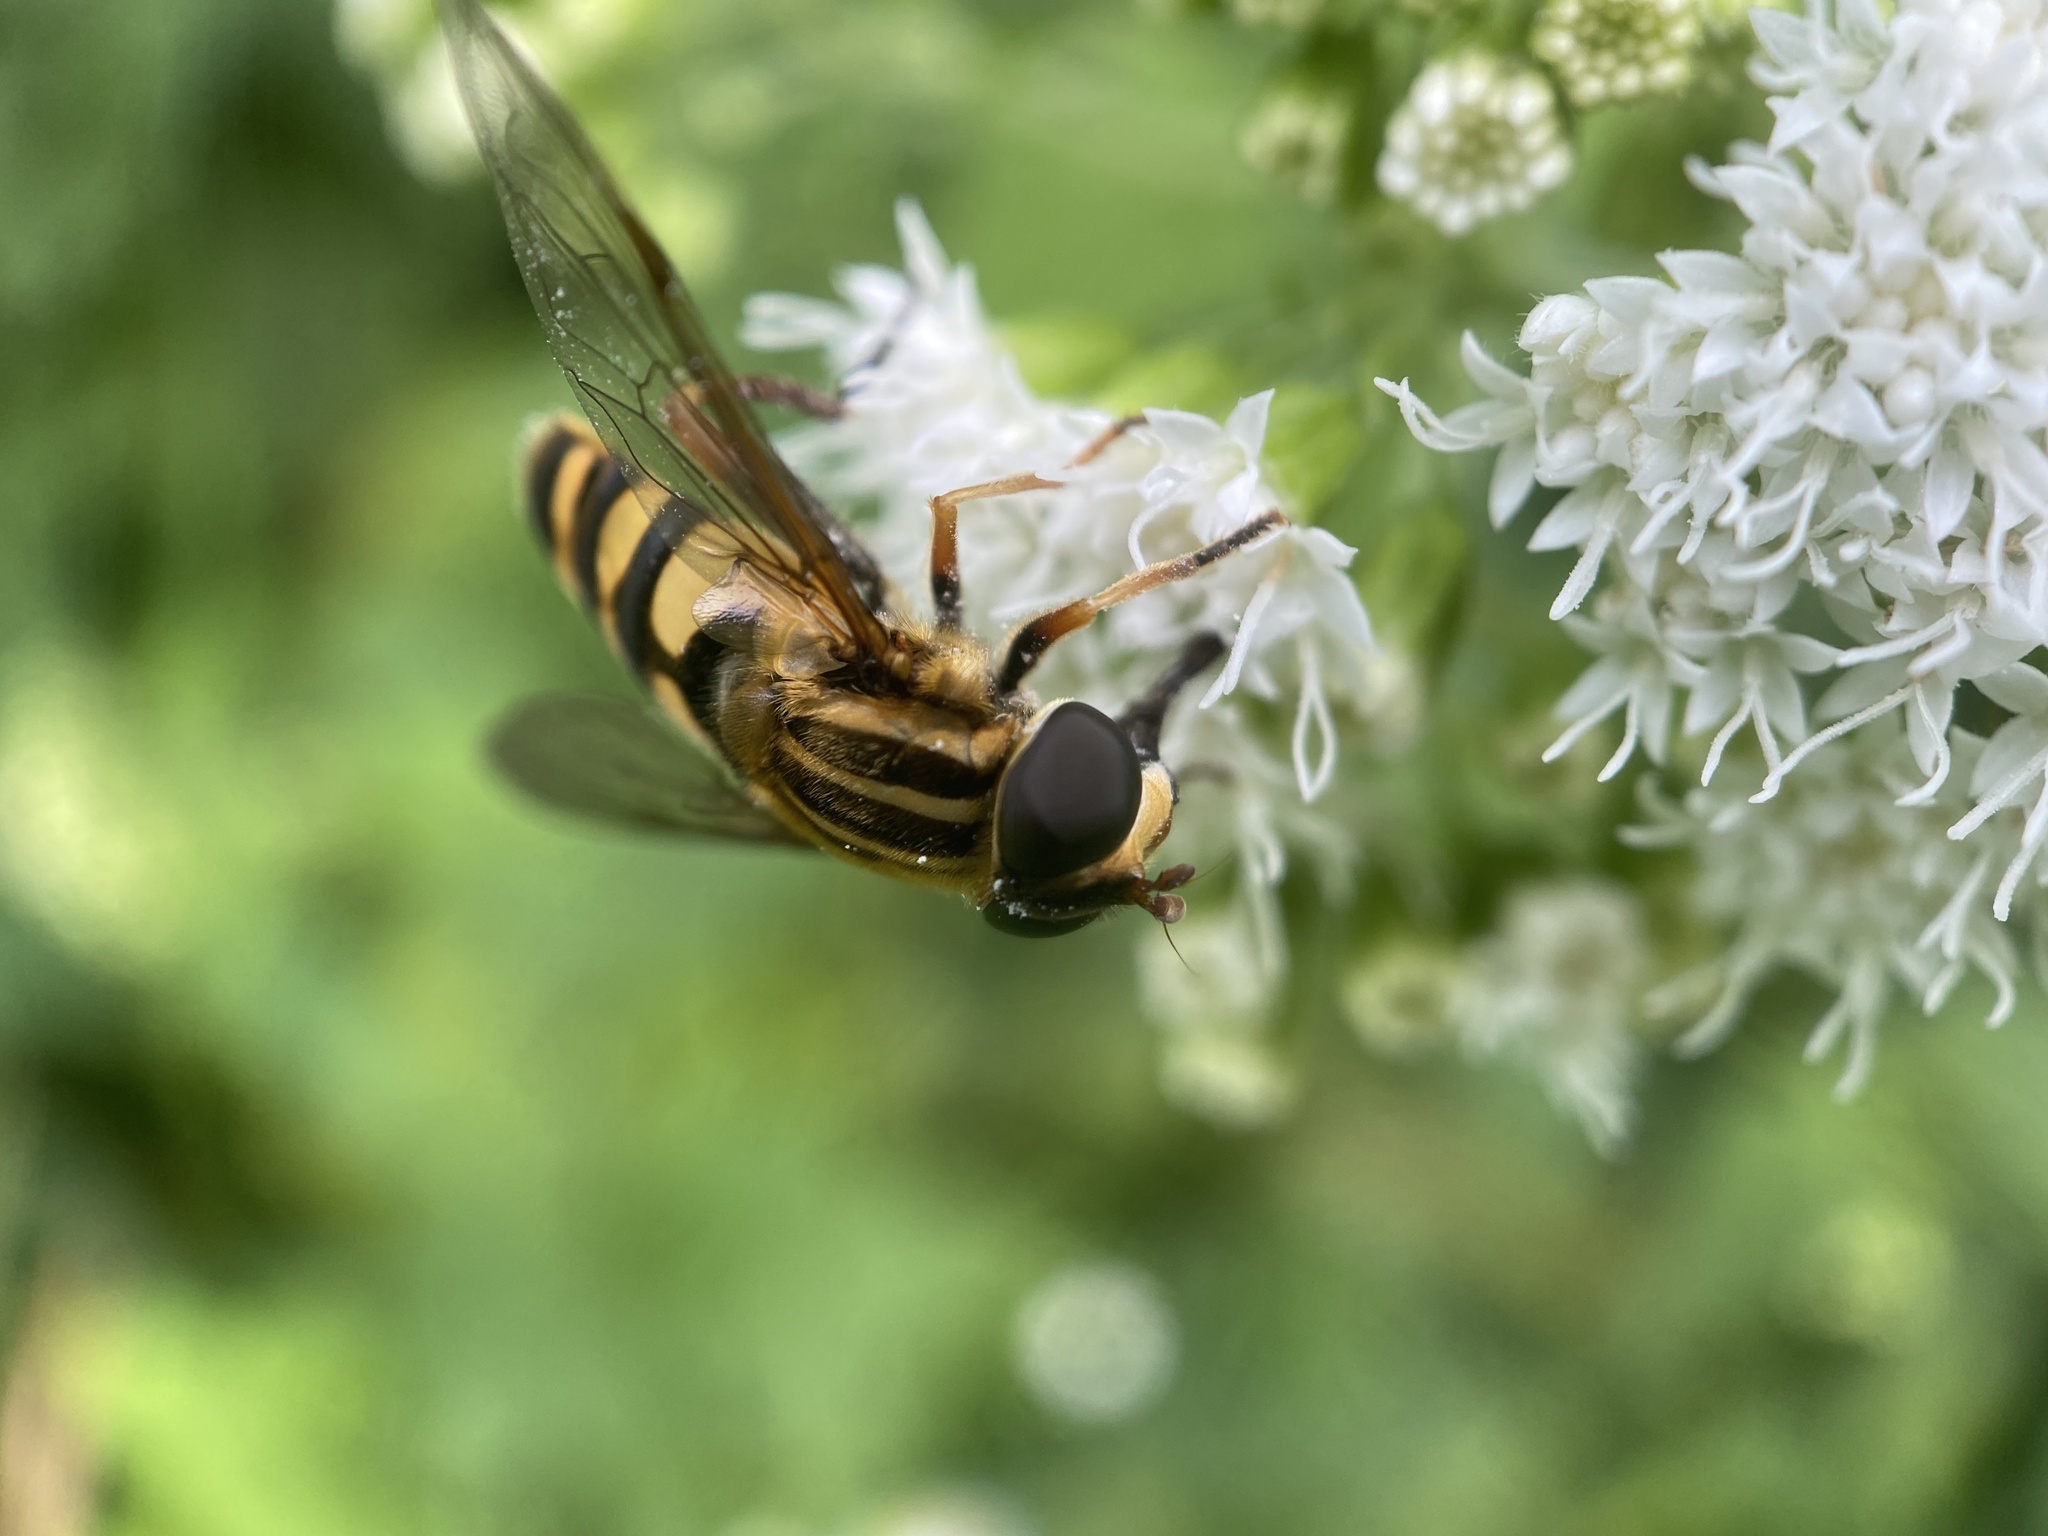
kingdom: Animalia
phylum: Arthropoda
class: Insecta
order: Diptera
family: Syrphidae
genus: Helophilus
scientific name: Helophilus fasciatus
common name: Narrow-headed marsh fly
